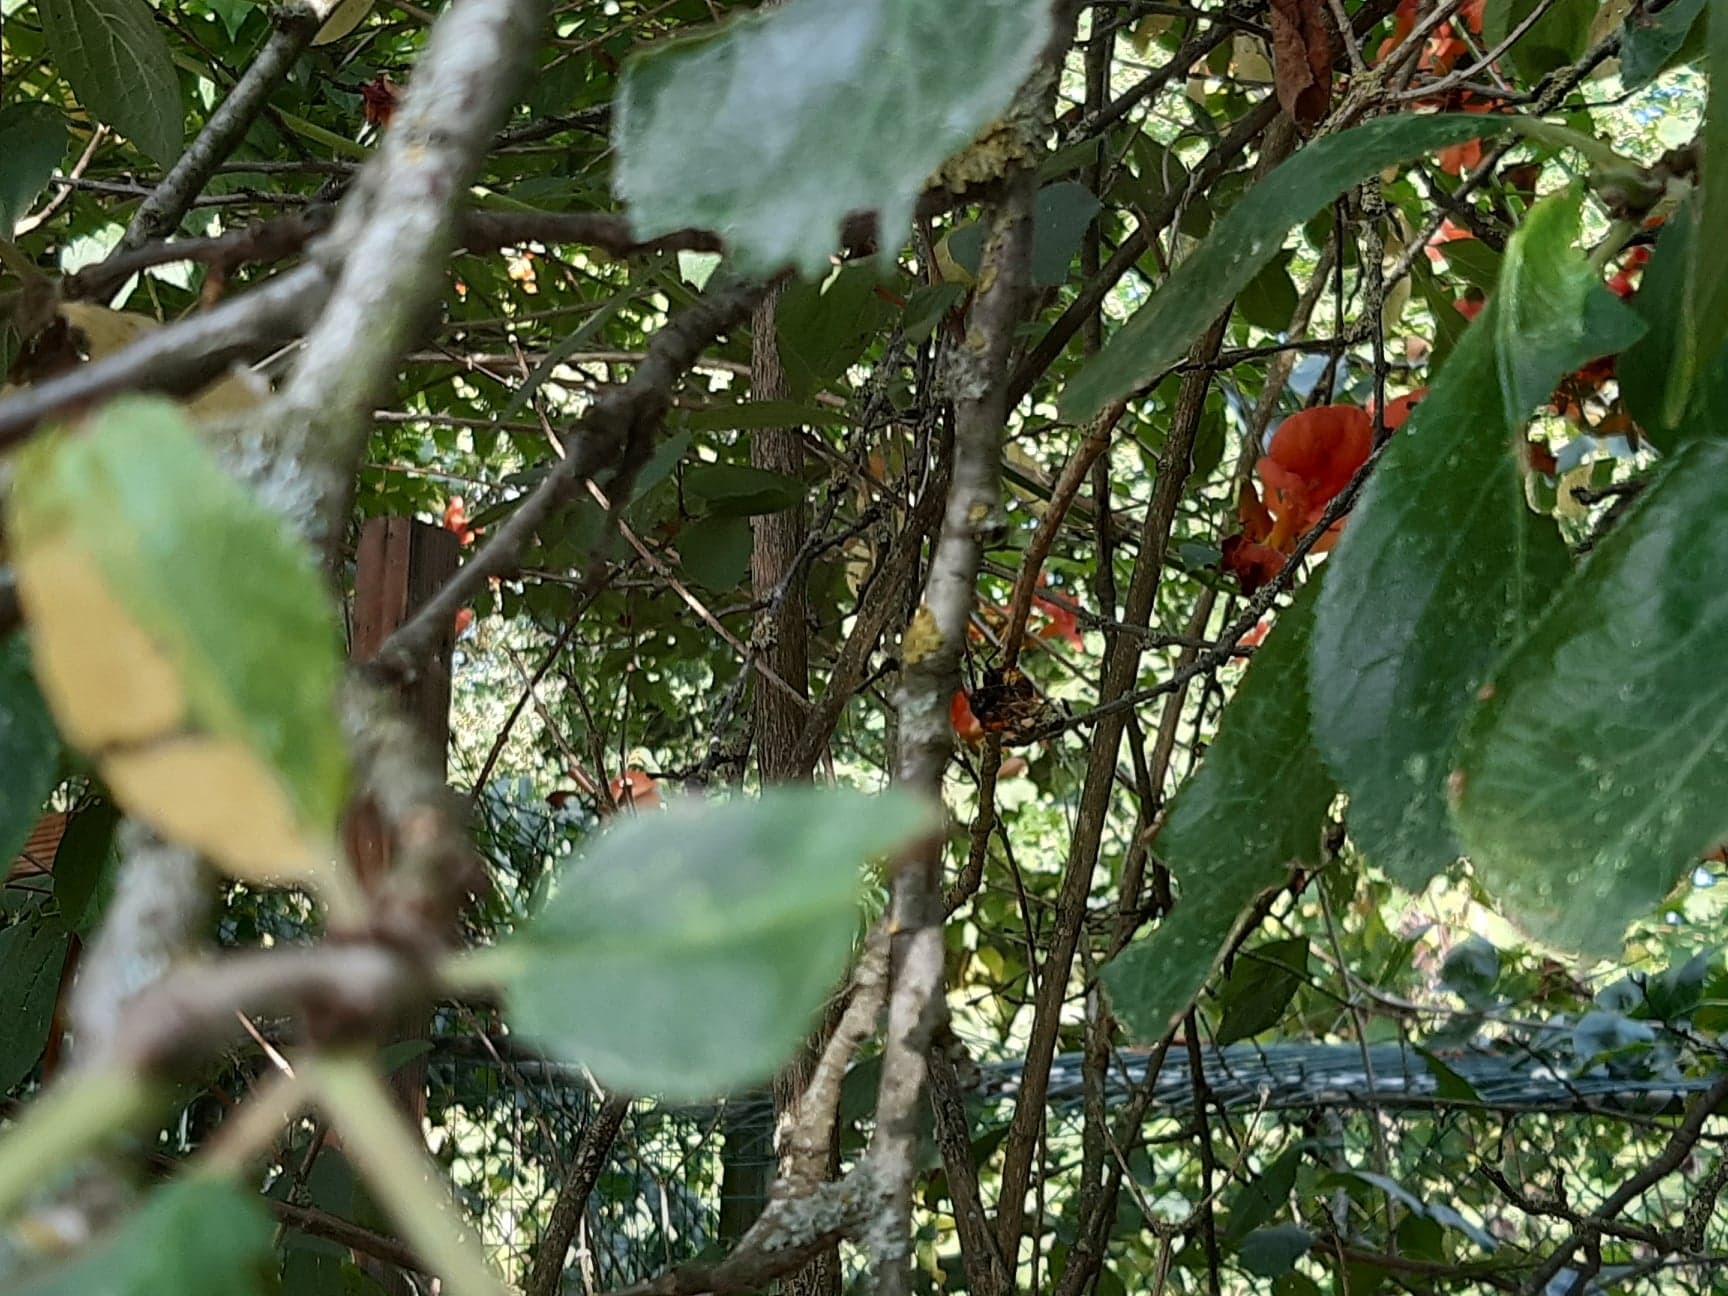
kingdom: Animalia
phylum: Arthropoda
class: Insecta
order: Hymenoptera
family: Vespidae
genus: Vespa
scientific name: Vespa velutina
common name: Asian hornet
